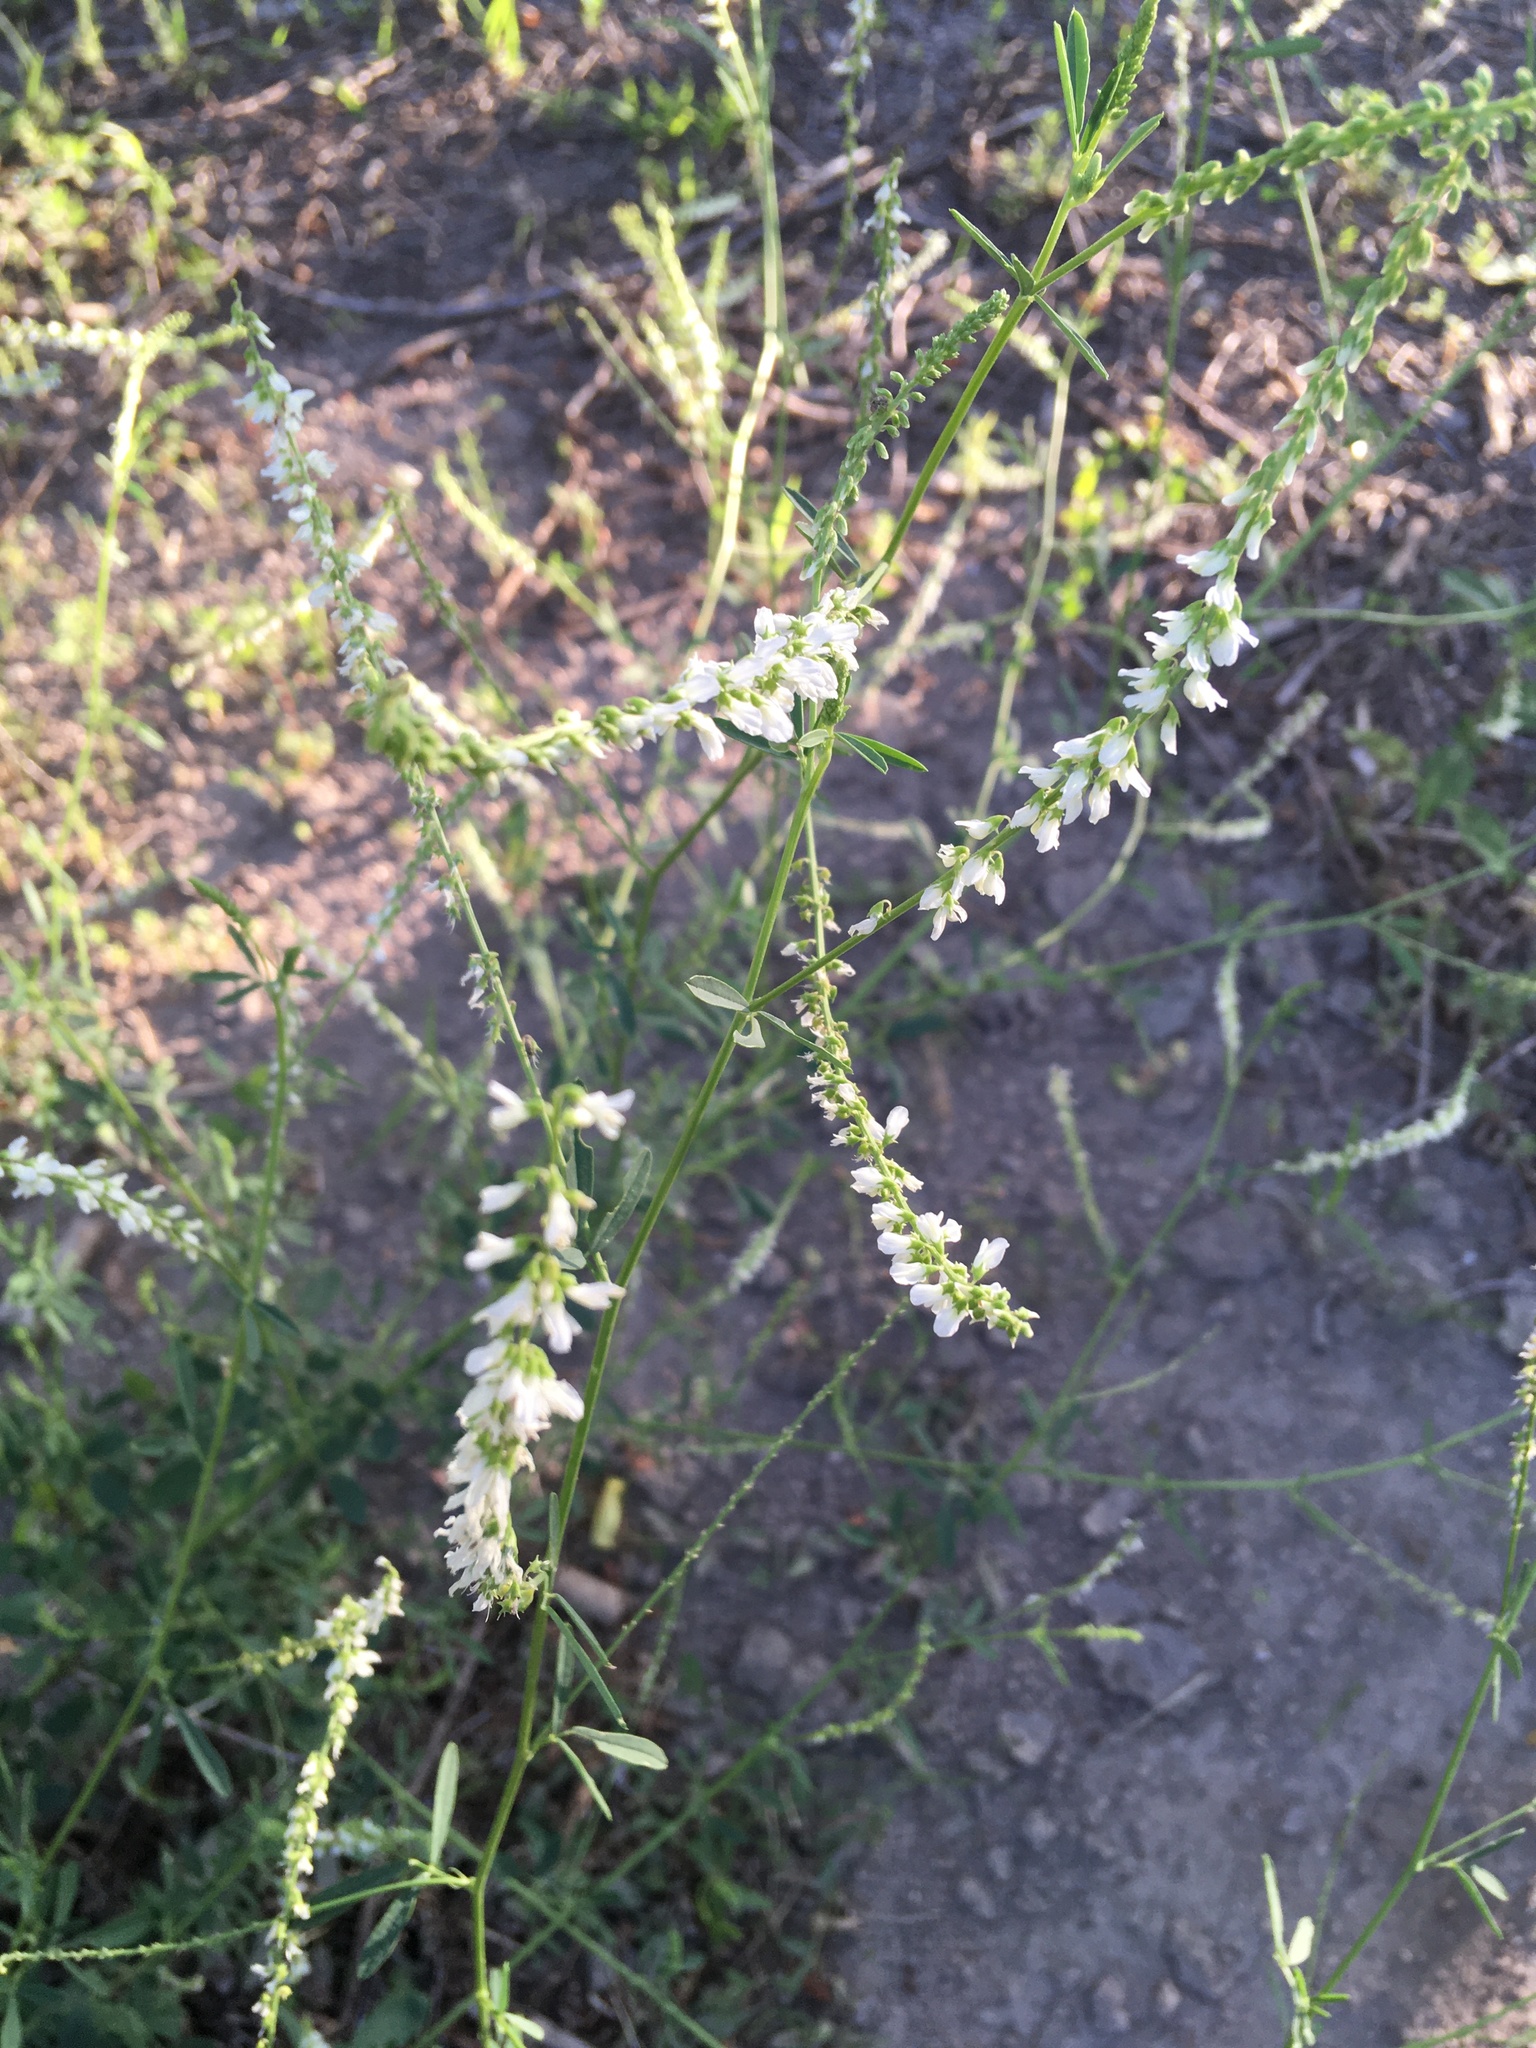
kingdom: Plantae
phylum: Tracheophyta
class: Magnoliopsida
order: Fabales
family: Fabaceae
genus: Melilotus
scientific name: Melilotus albus
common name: White melilot
